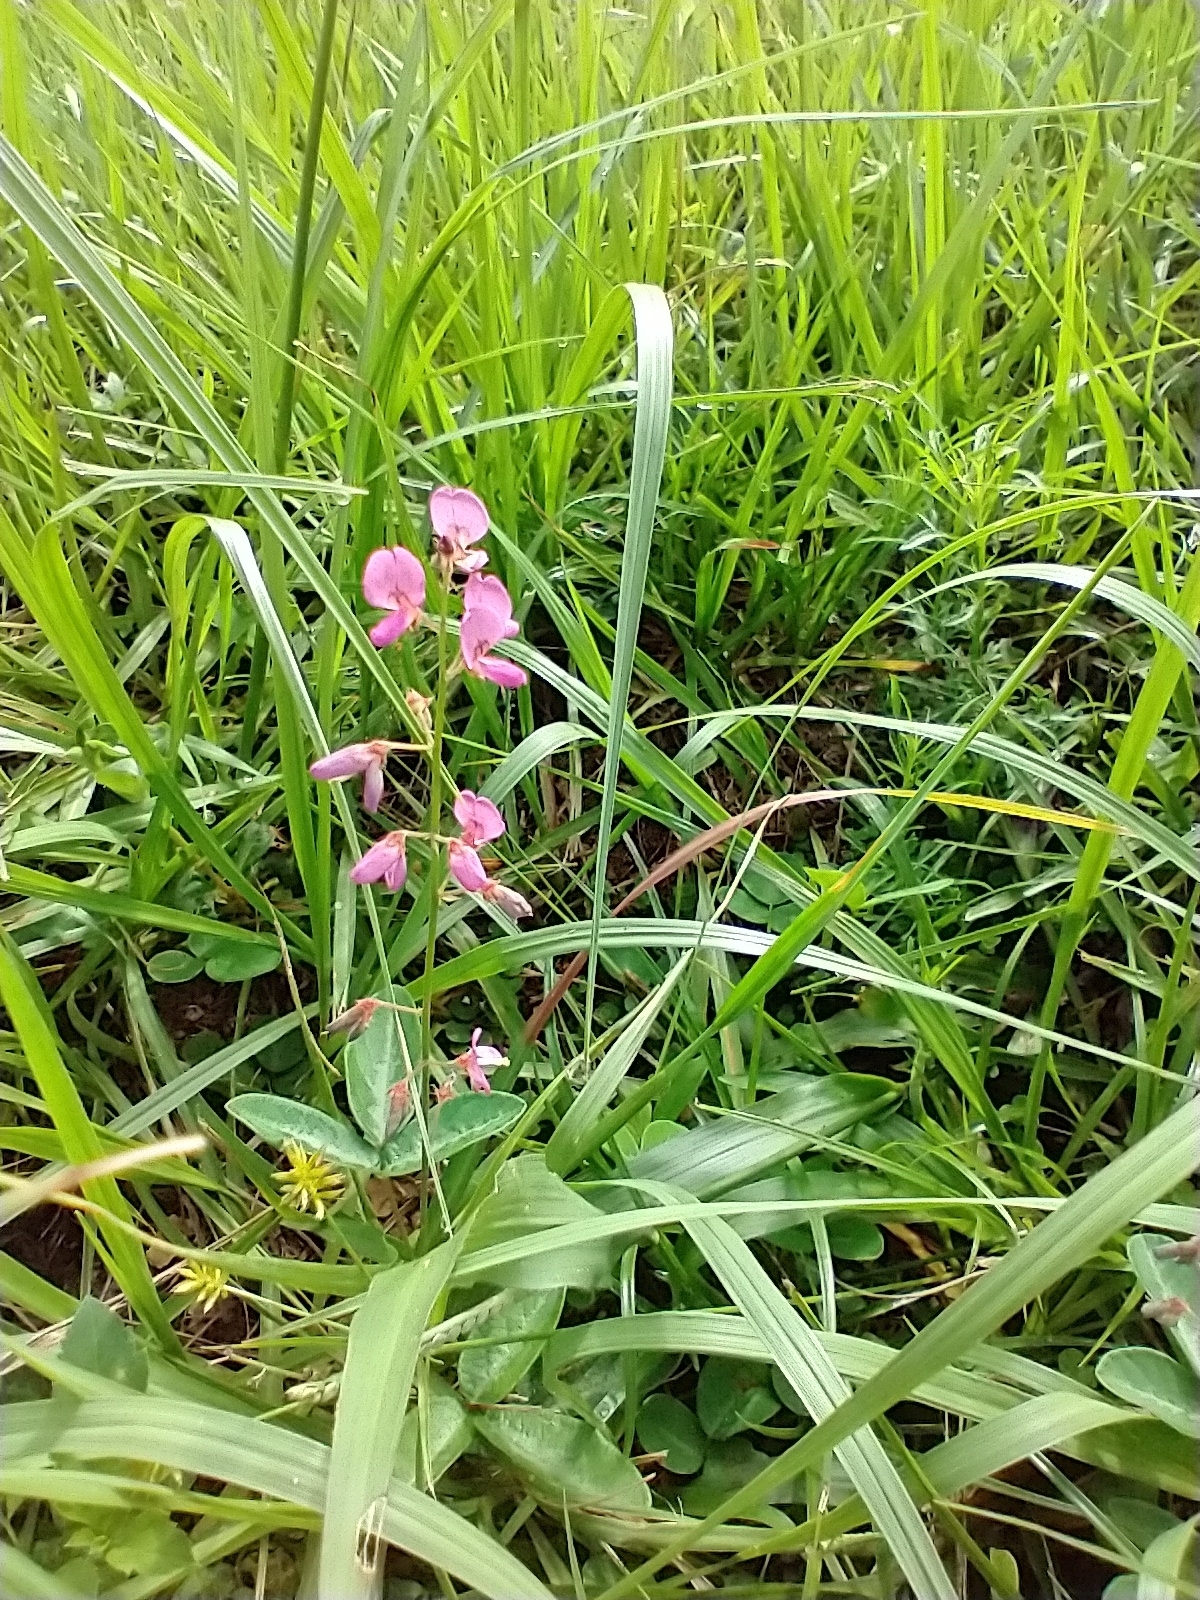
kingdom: Plantae
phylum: Tracheophyta
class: Magnoliopsida
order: Fabales
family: Fabaceae
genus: Desmodium
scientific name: Desmodium incanum
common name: Tickclover
